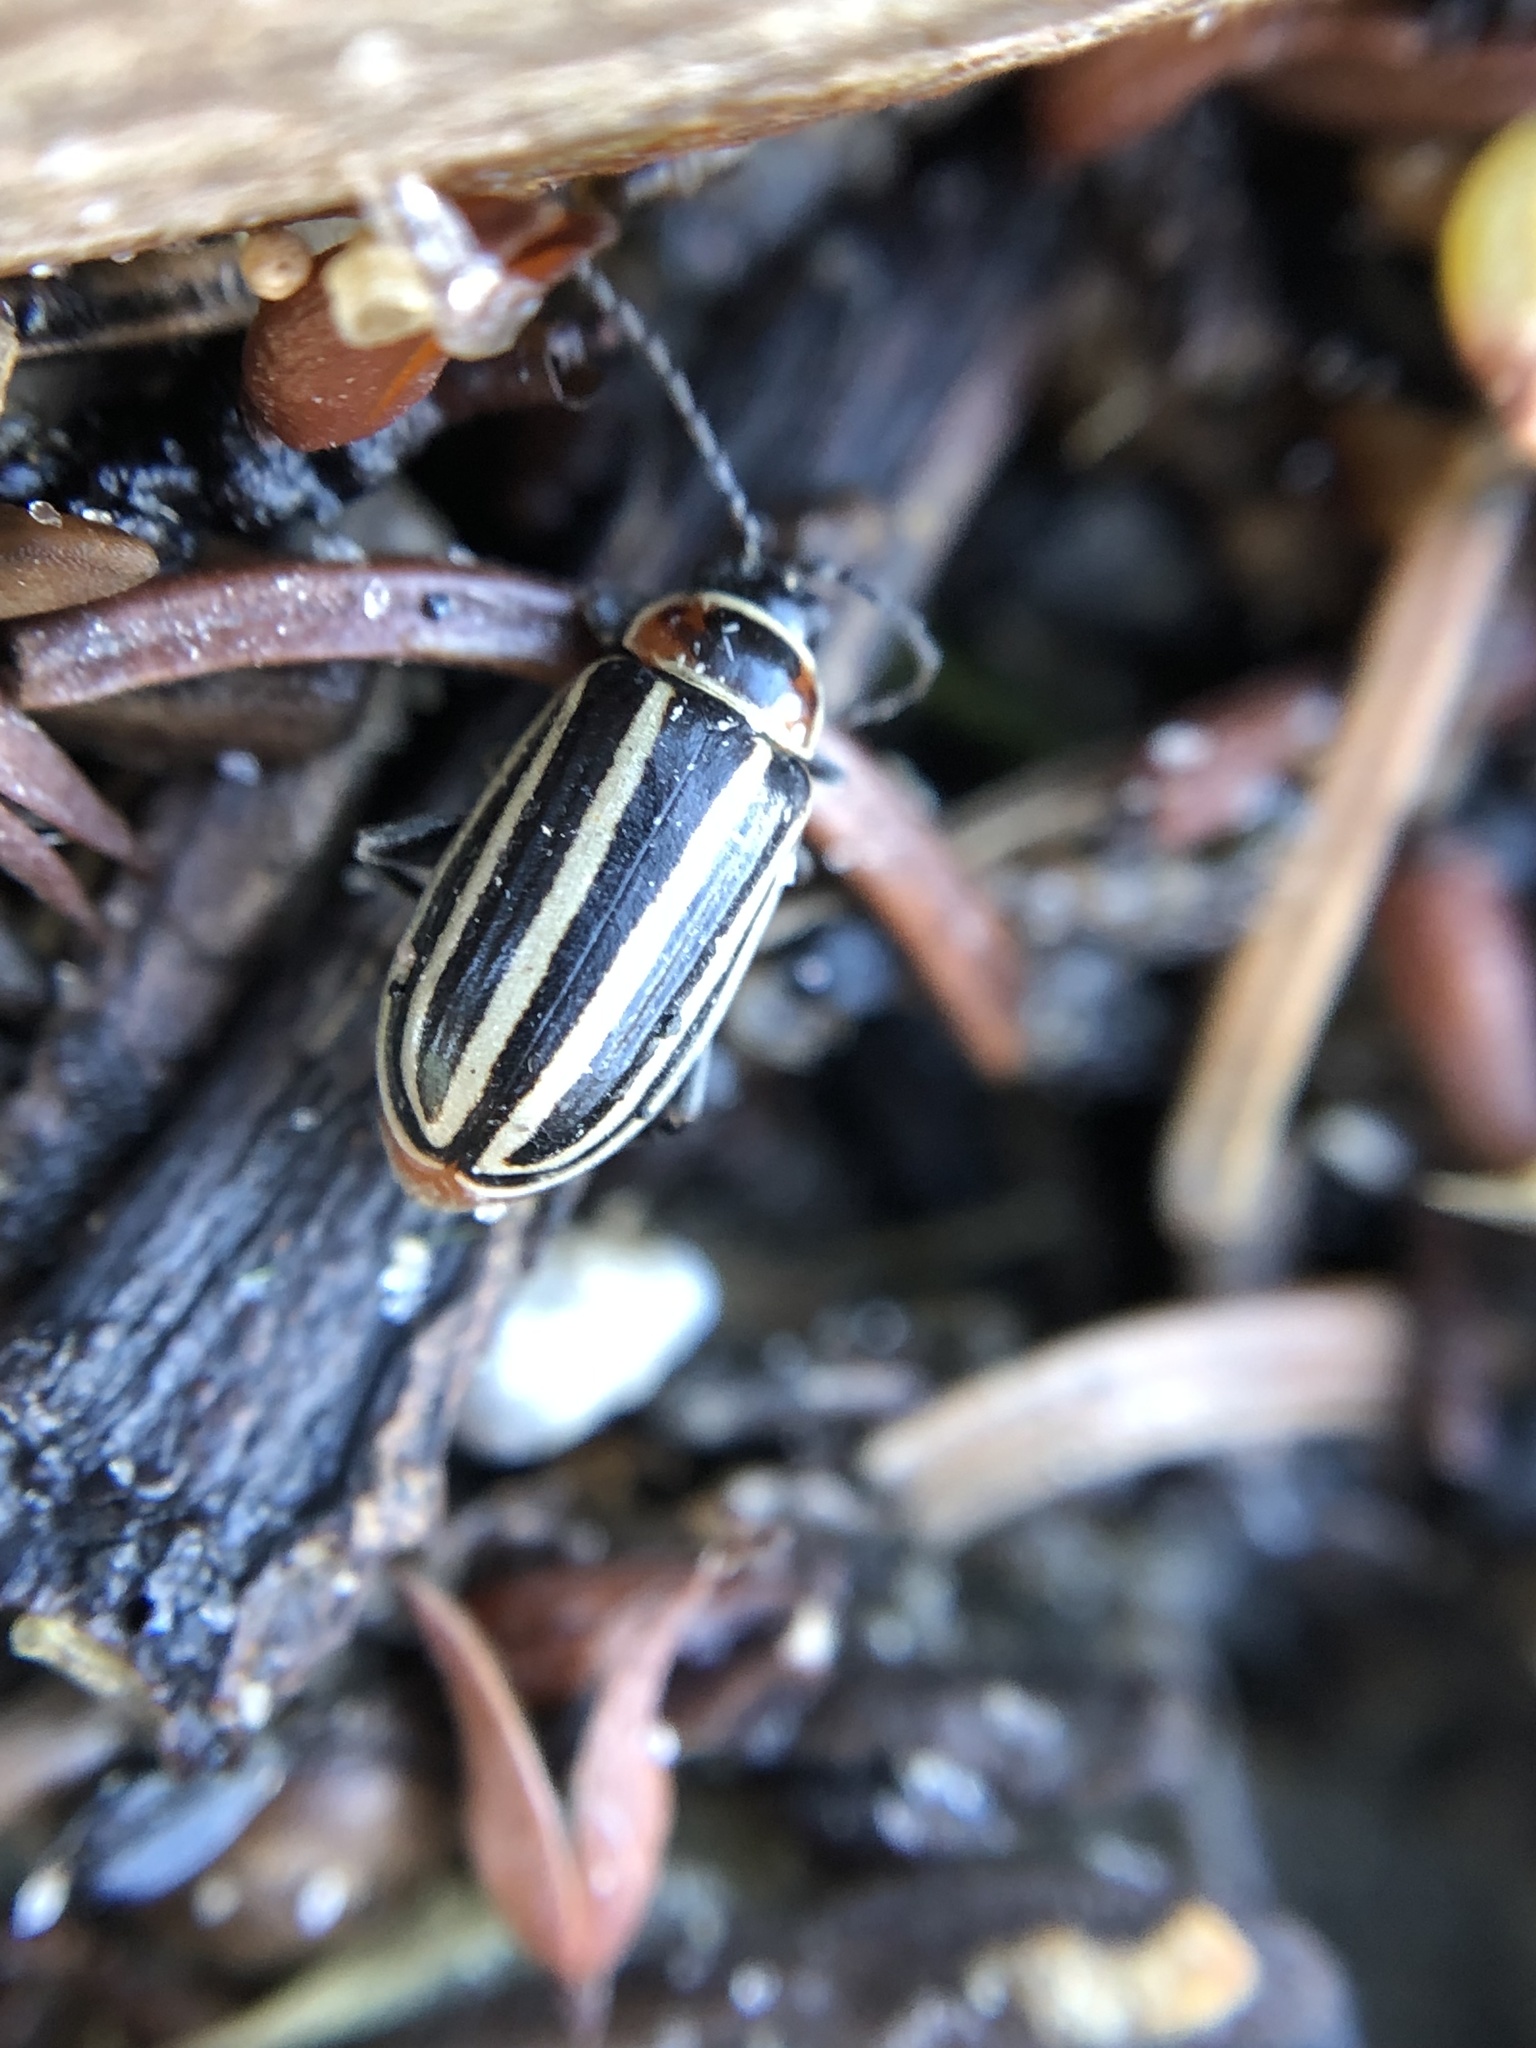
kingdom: Animalia
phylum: Arthropoda
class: Insecta
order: Coleoptera
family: Chrysomelidae
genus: Disonycha
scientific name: Disonycha pensylvanica
